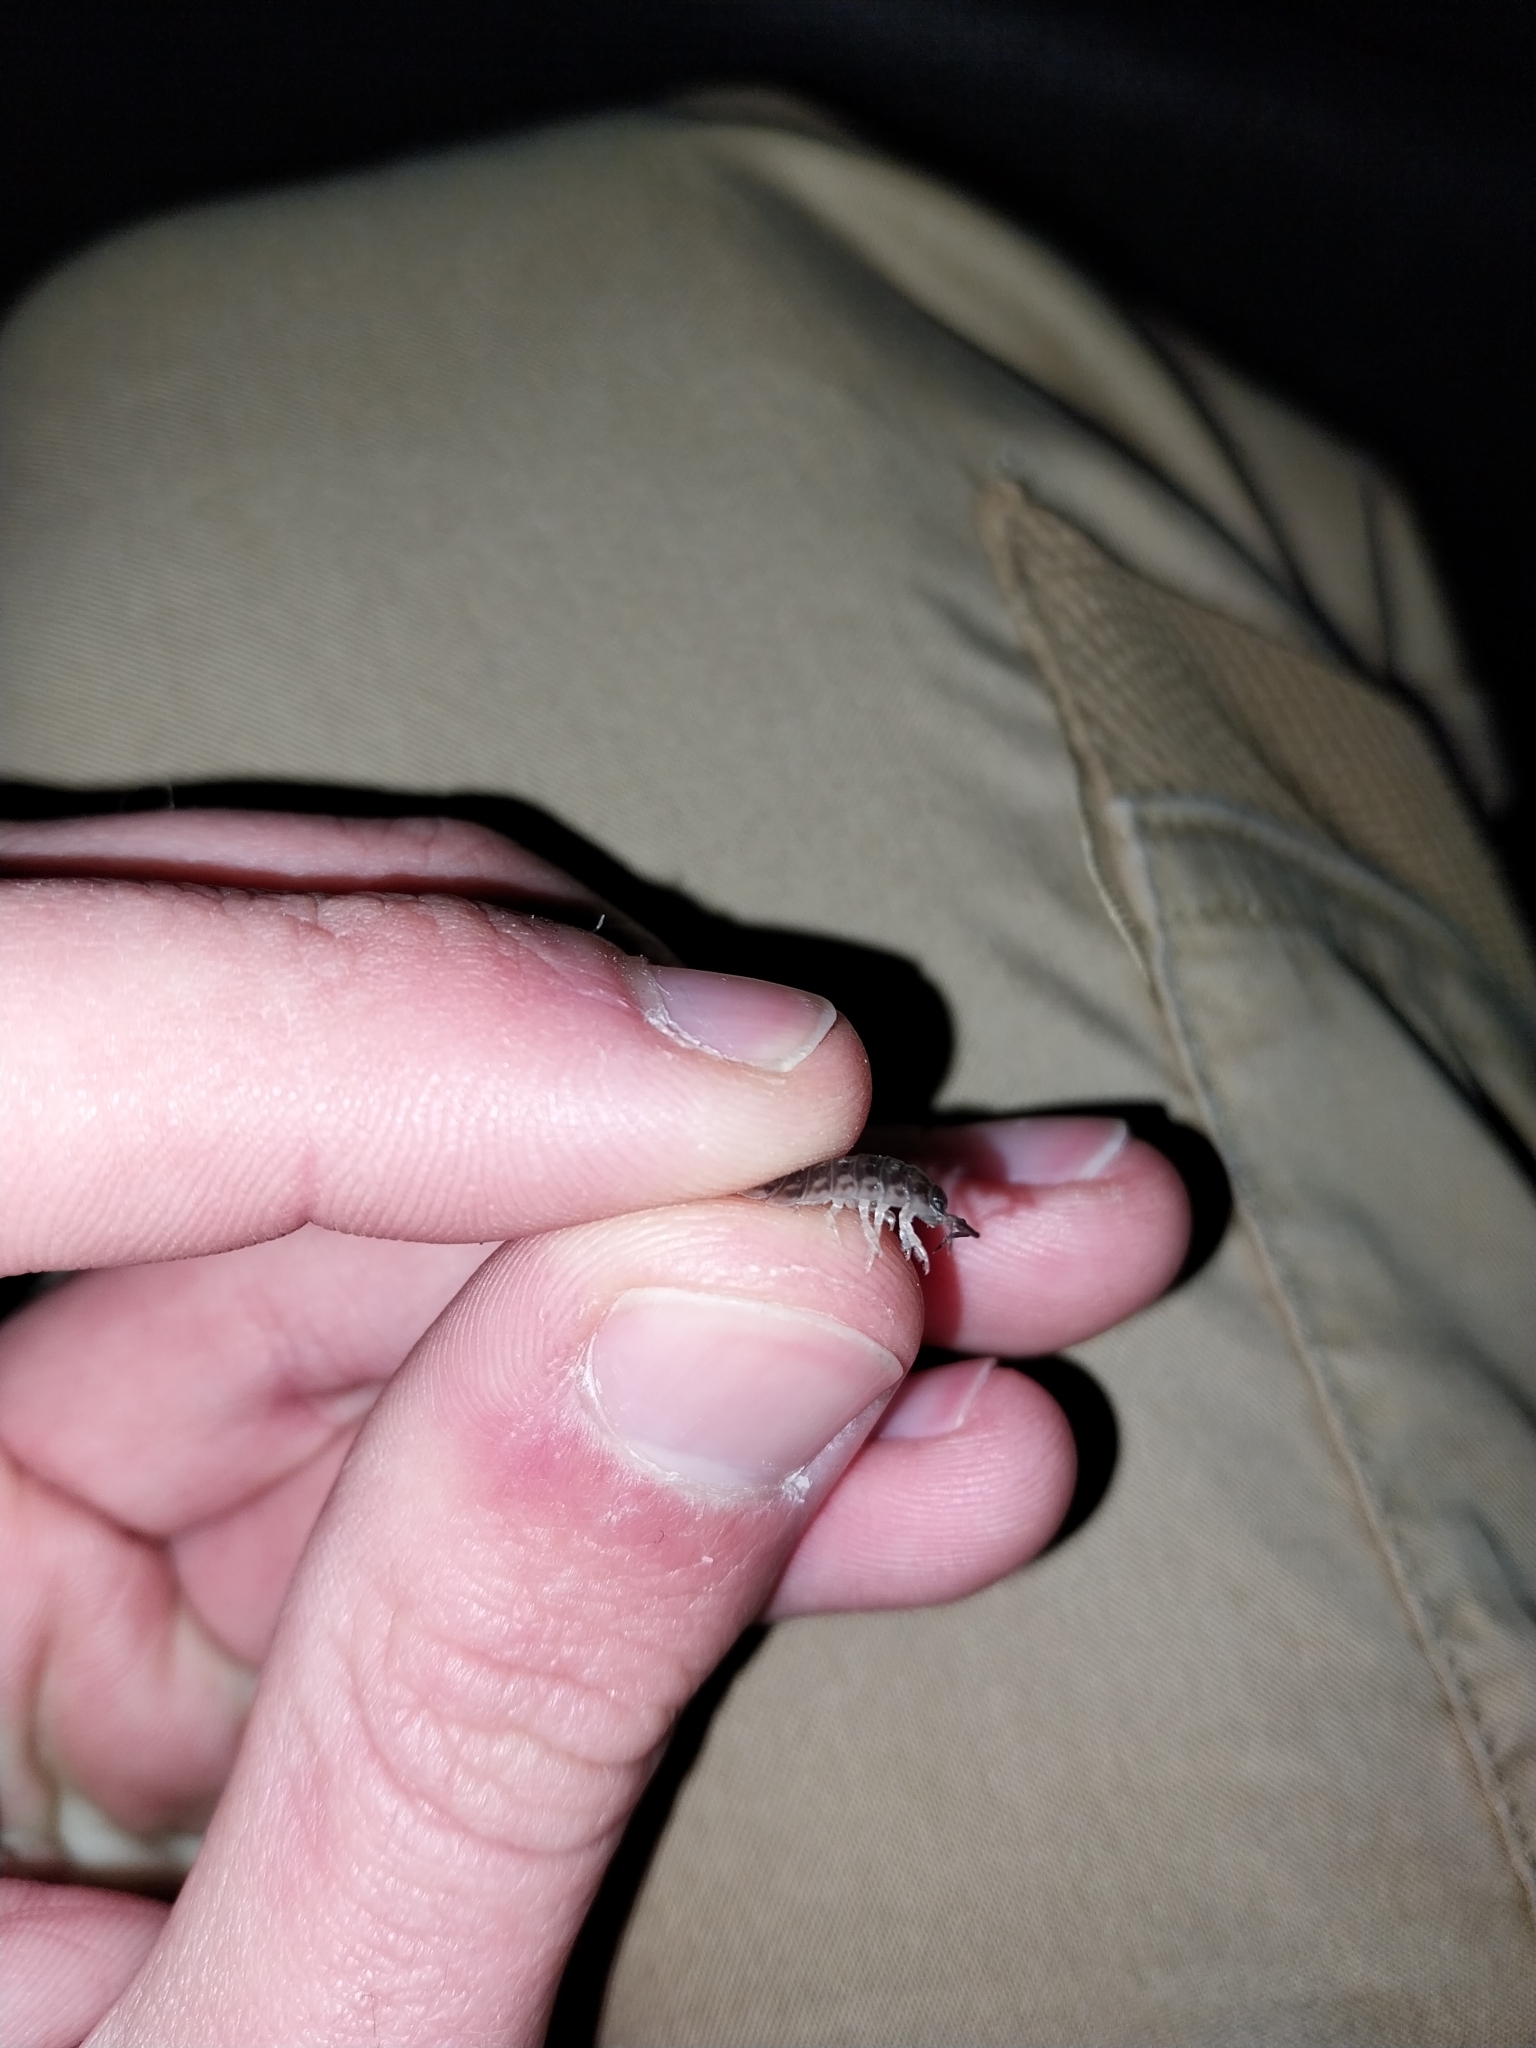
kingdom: Animalia
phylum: Arthropoda
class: Malacostraca
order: Isopoda
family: Oniscidae
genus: Oniscus
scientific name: Oniscus asellus
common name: Common shiny woodlouse
